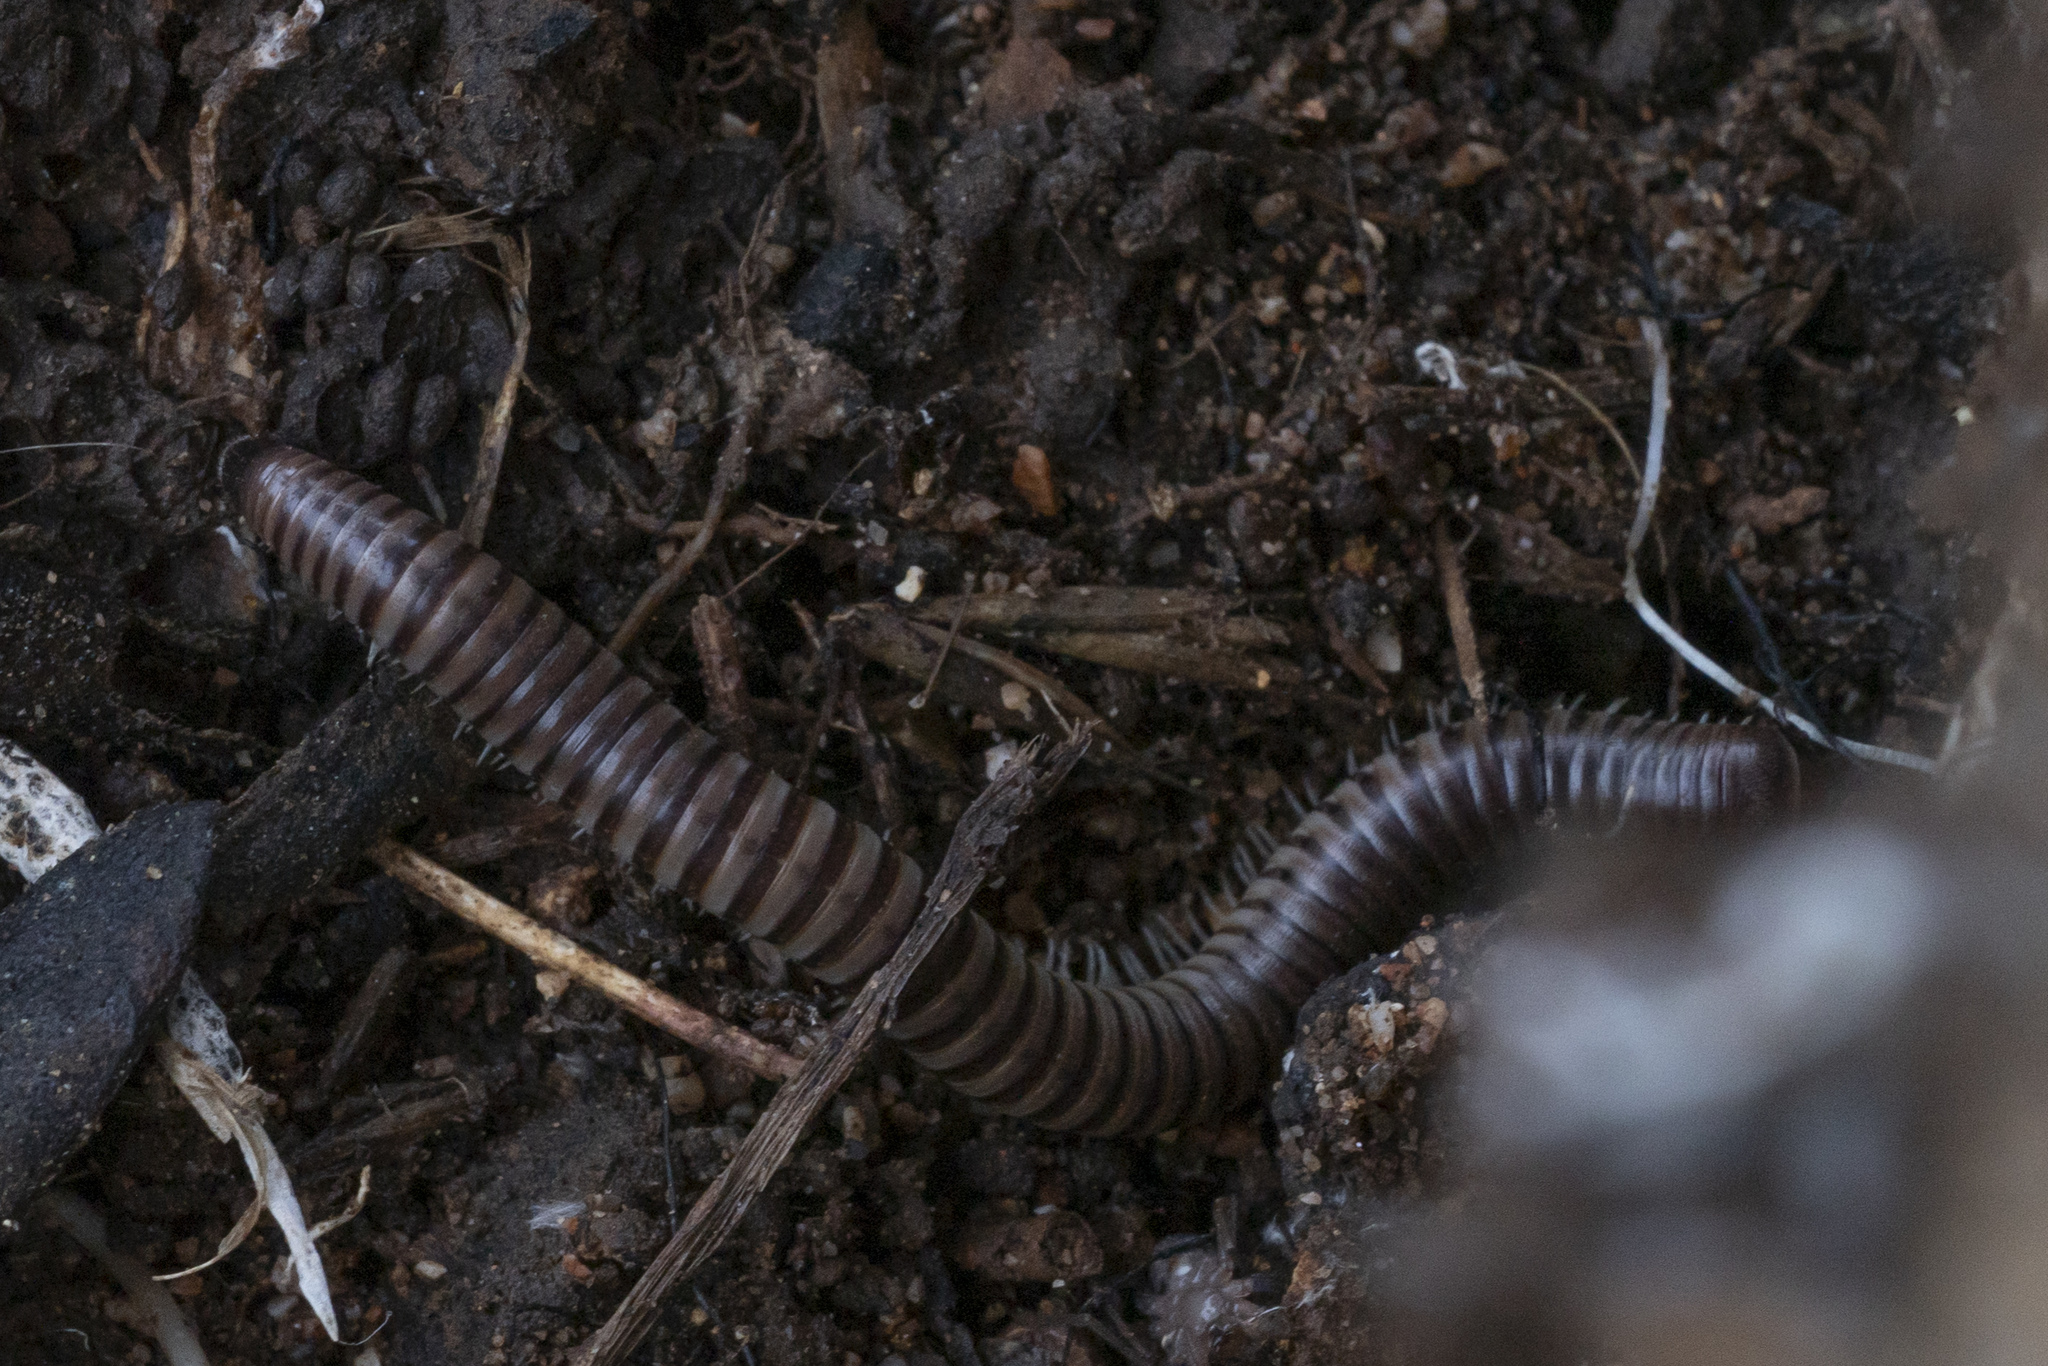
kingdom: Animalia
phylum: Arthropoda
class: Diplopoda
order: Julida
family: Julidae
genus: Pachyiulus
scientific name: Pachyiulus asiaeminoris
